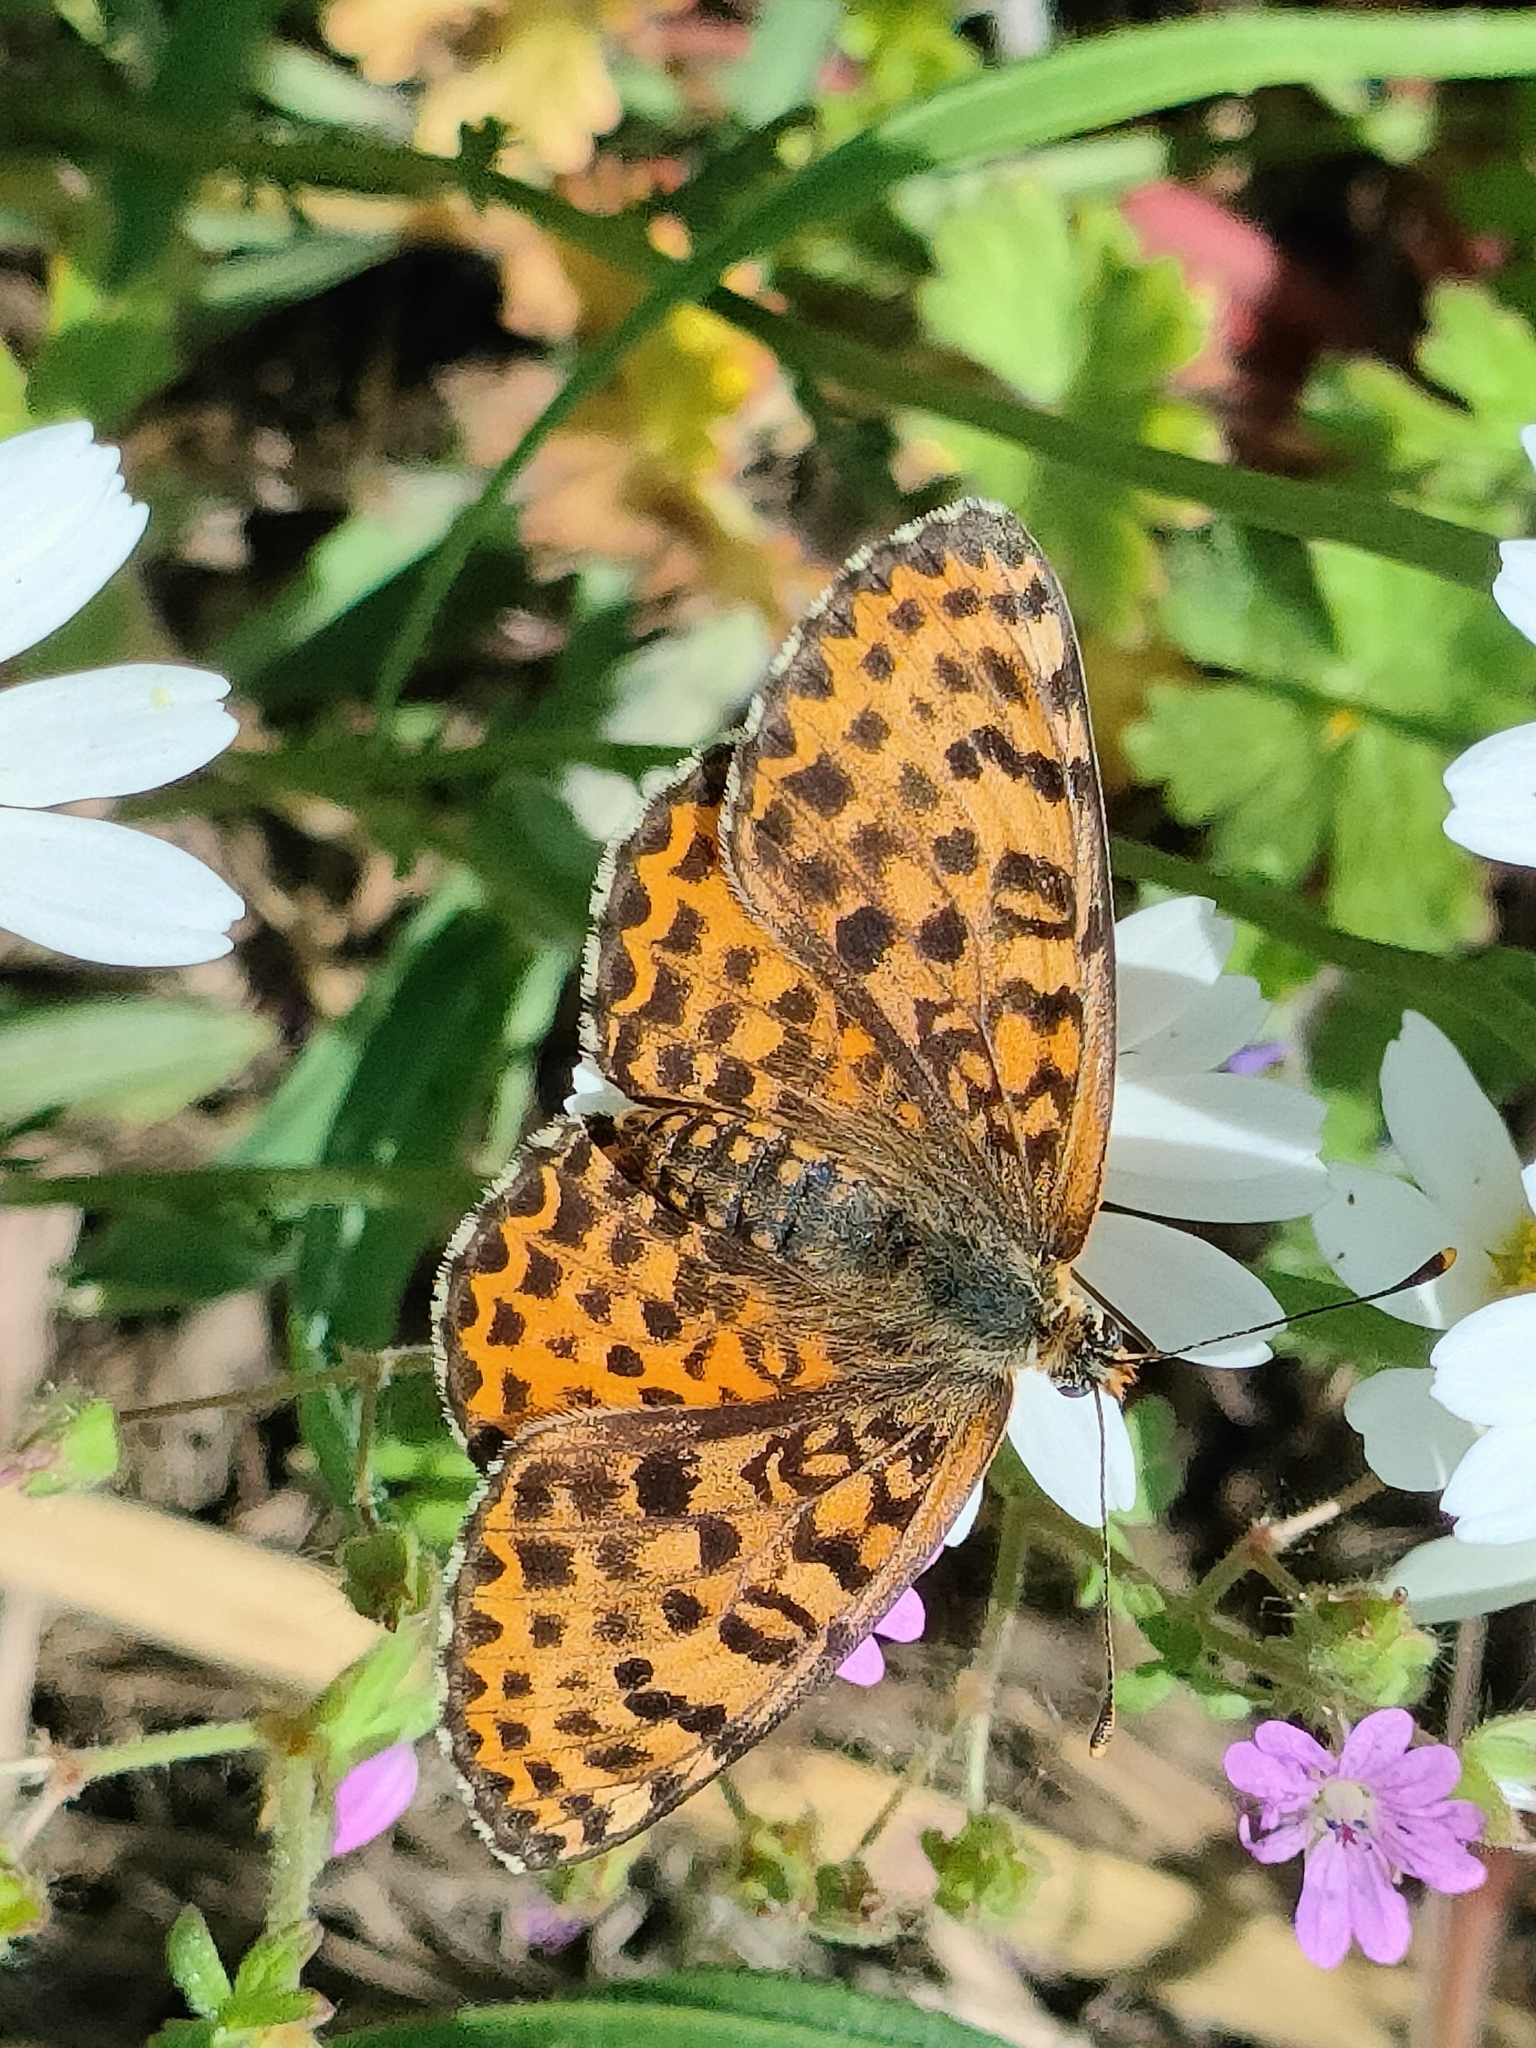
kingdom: Animalia
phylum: Arthropoda
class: Insecta
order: Lepidoptera
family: Nymphalidae
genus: Melitaea
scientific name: Melitaea didyma
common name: Spotted fritillary
